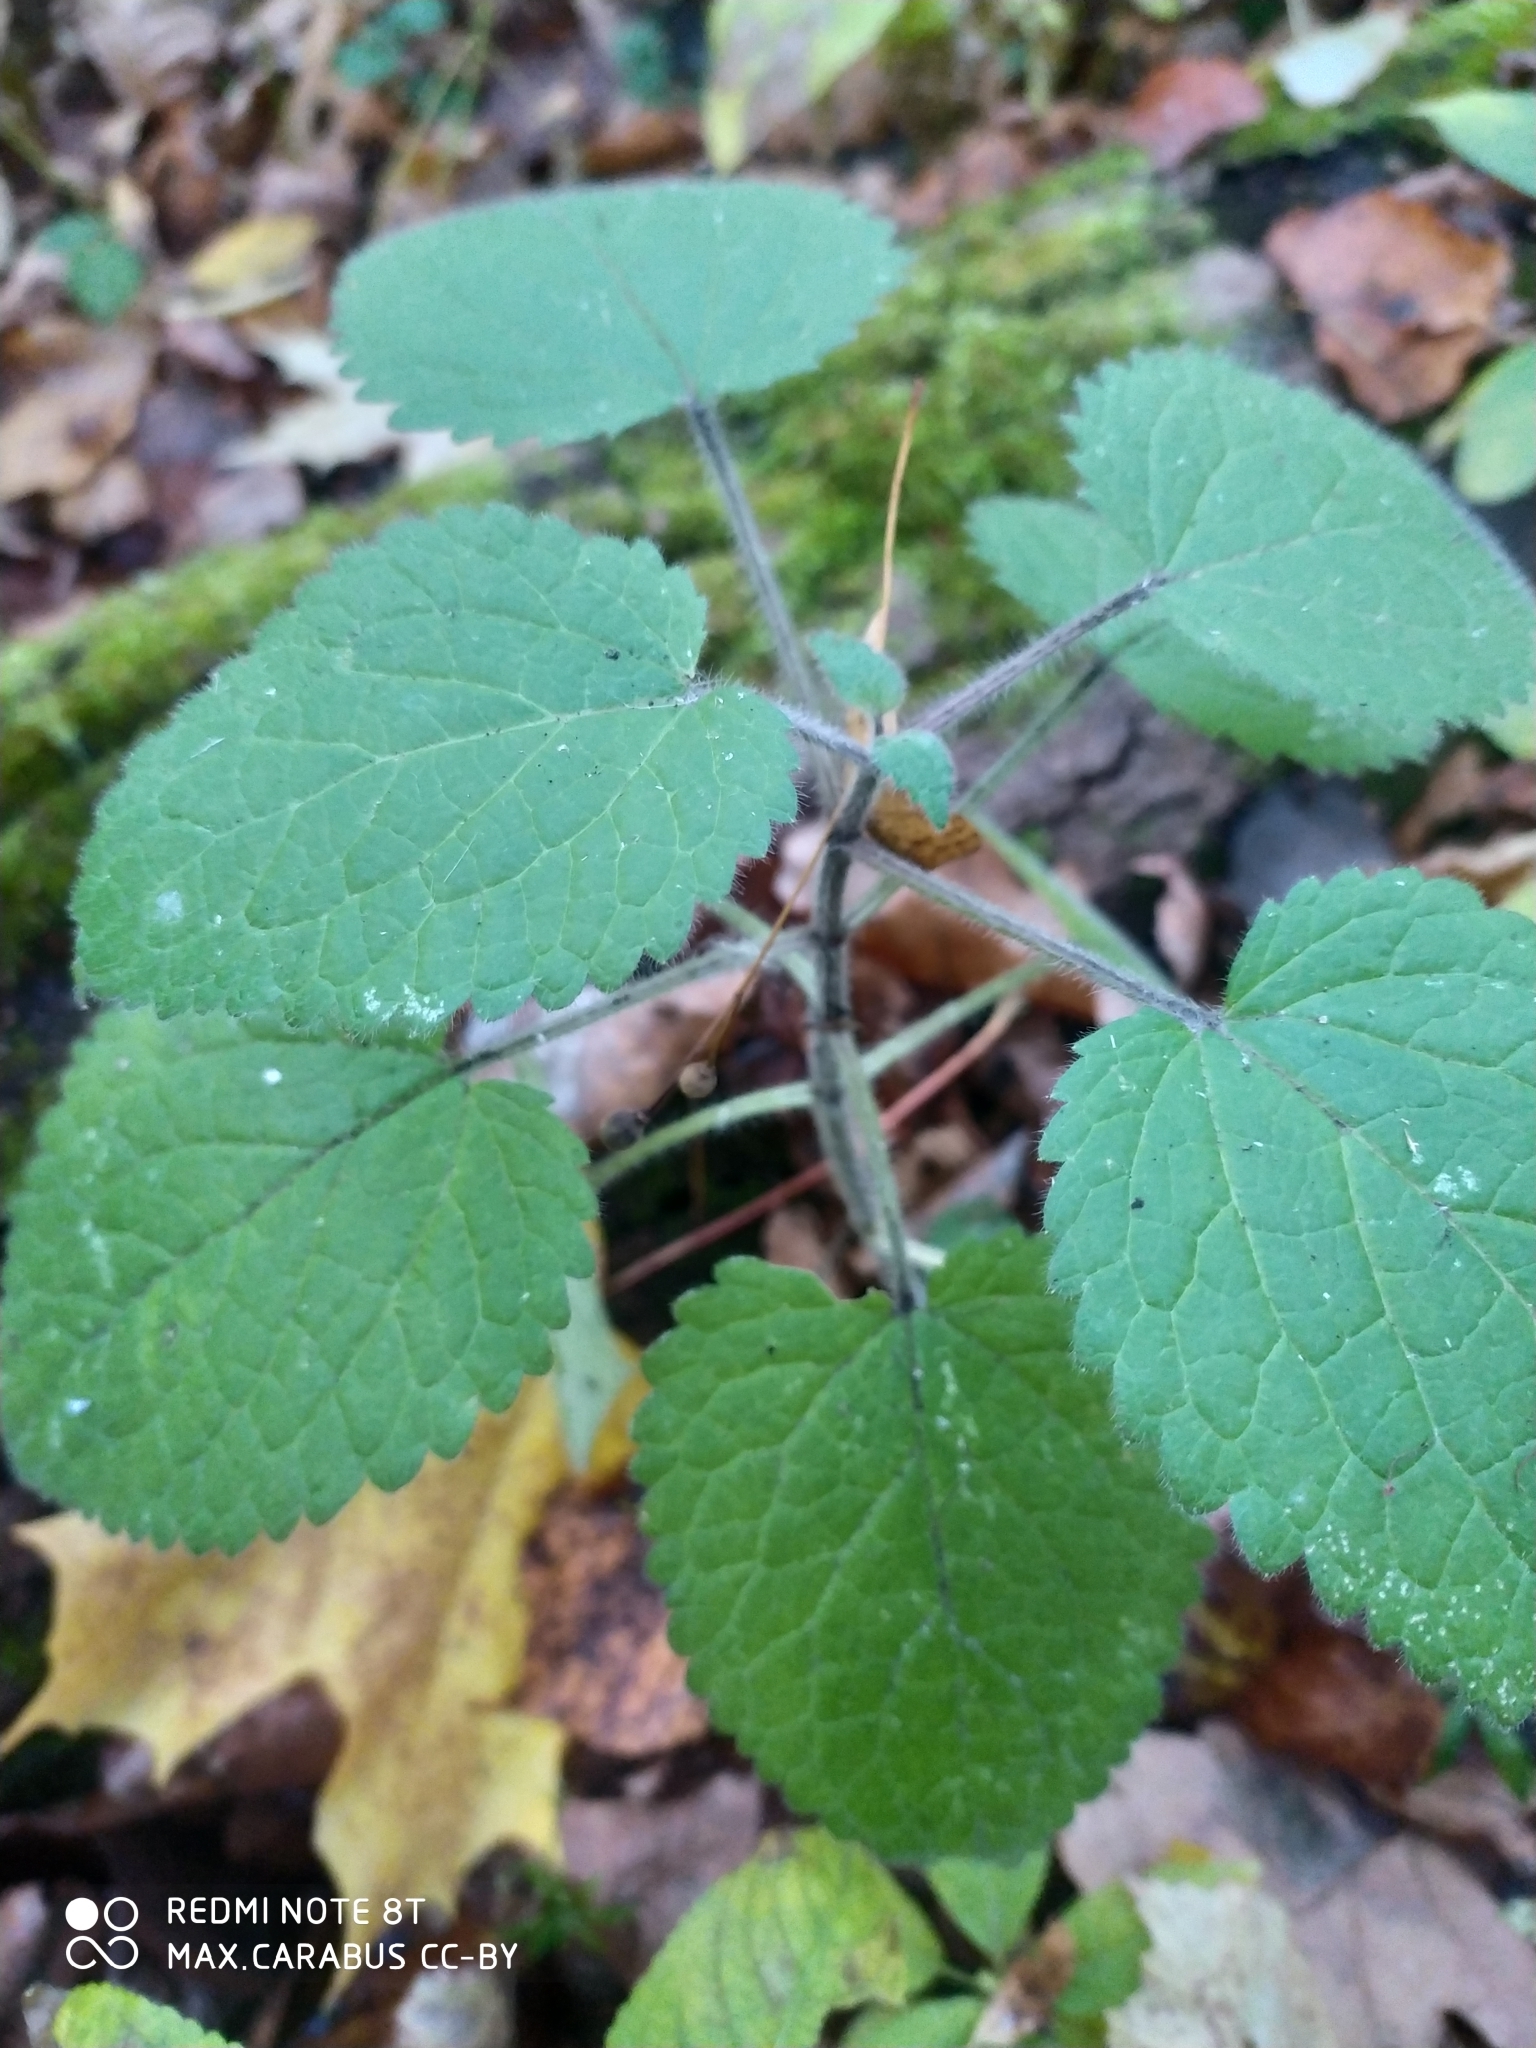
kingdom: Plantae
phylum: Tracheophyta
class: Magnoliopsida
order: Lamiales
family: Lamiaceae
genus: Stachys
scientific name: Stachys sylvatica
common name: Hedge woundwort
